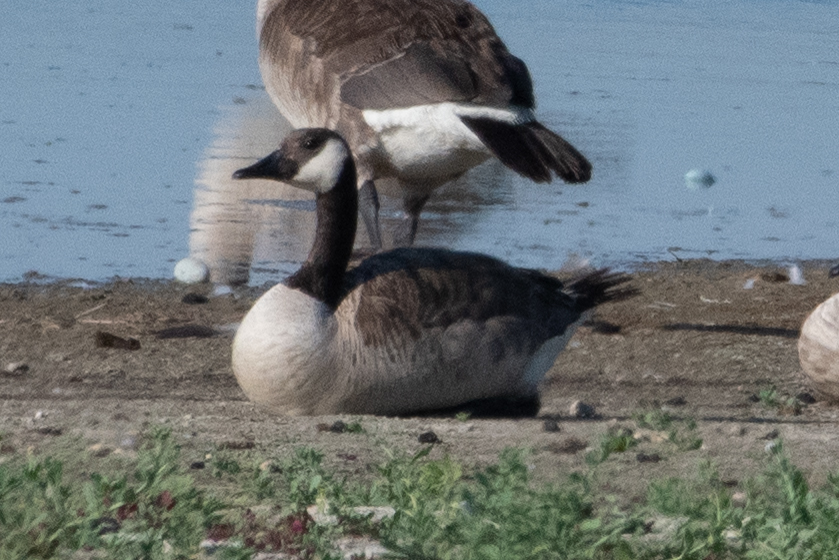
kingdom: Animalia
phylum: Chordata
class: Aves
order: Anseriformes
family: Anatidae
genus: Branta
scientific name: Branta canadensis
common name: Canada goose
